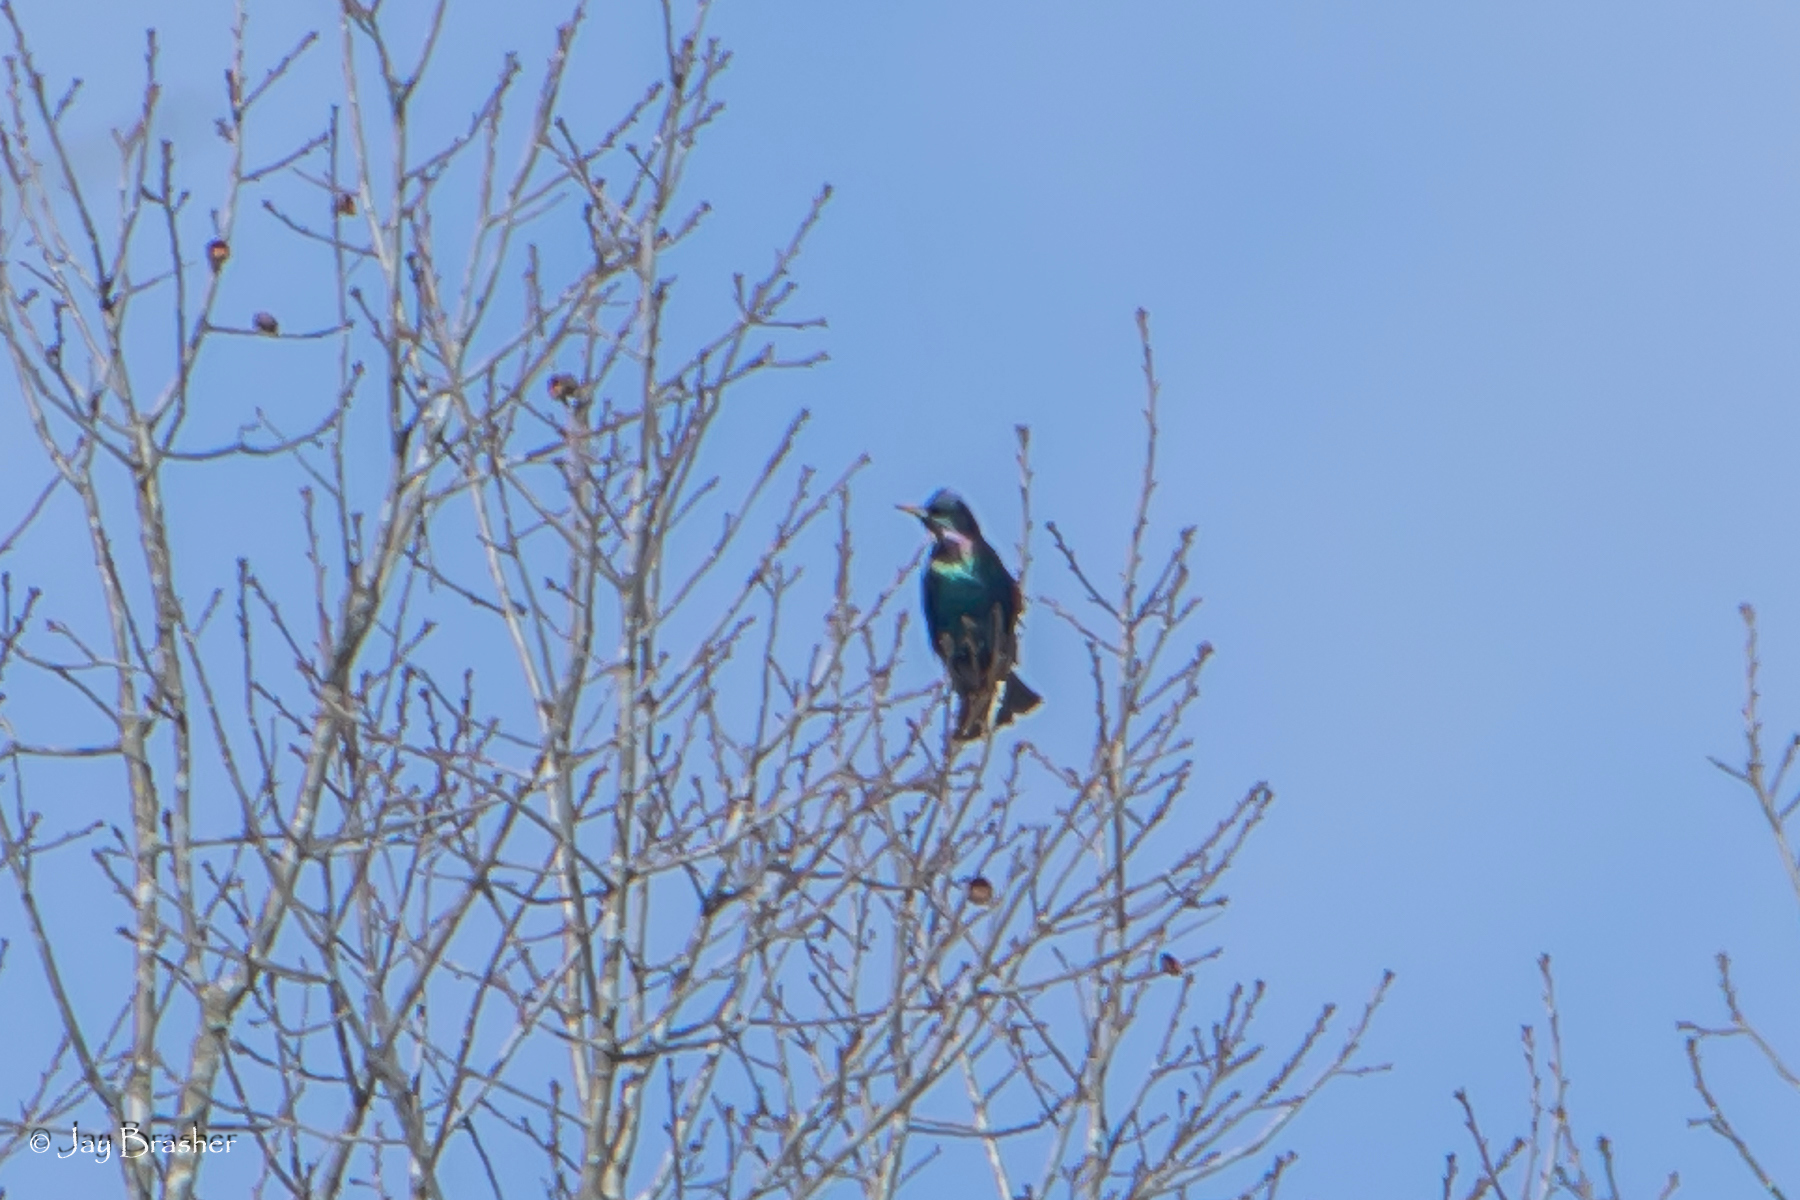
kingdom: Animalia
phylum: Chordata
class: Aves
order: Passeriformes
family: Sturnidae
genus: Sturnus
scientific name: Sturnus vulgaris
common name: Common starling
